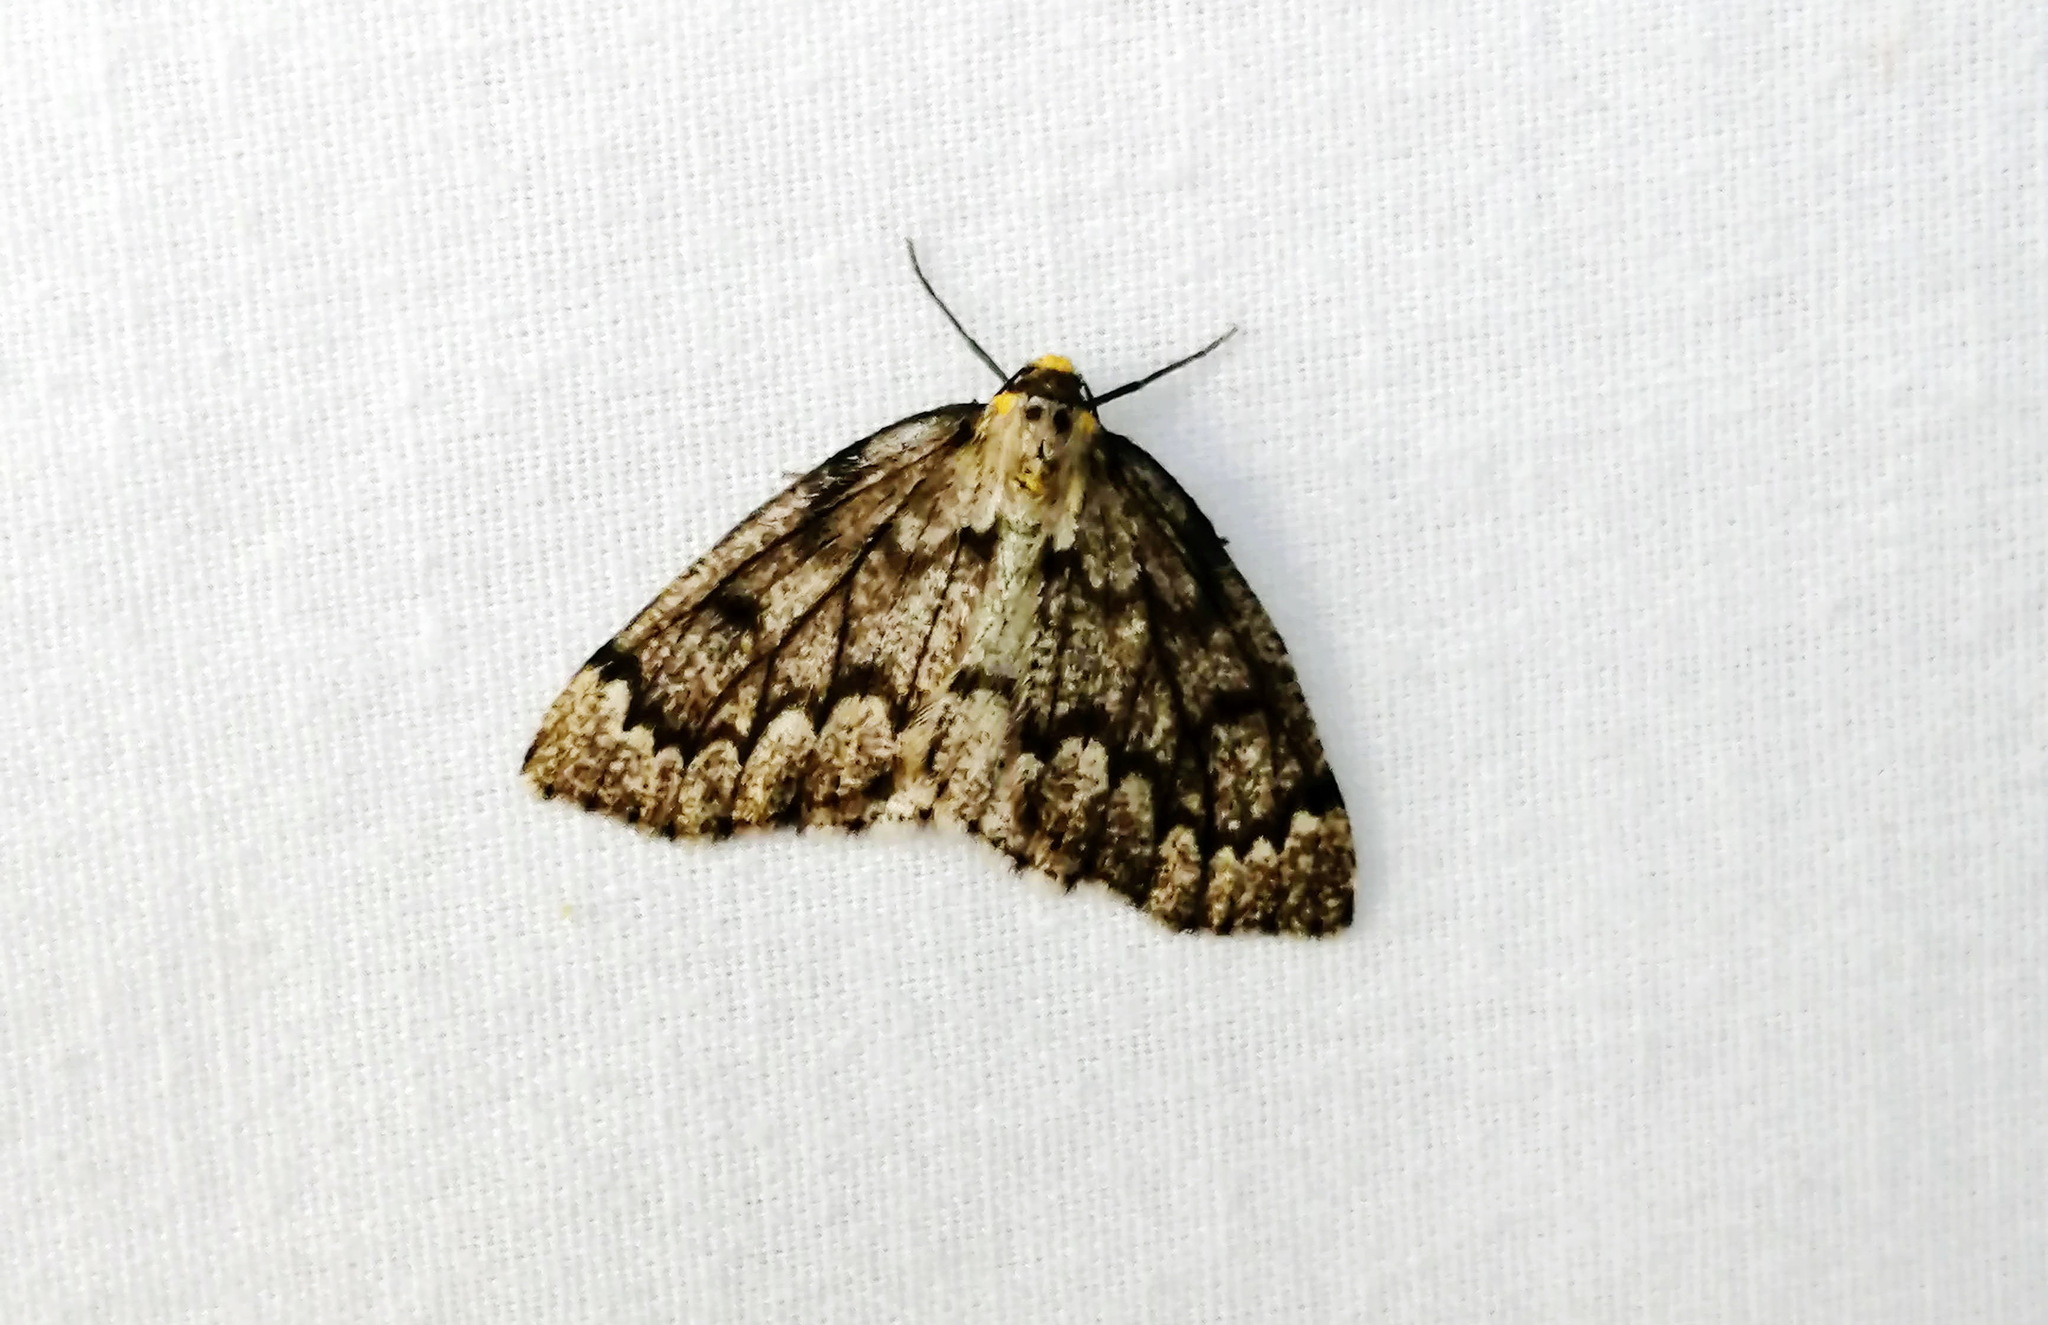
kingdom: Animalia
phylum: Arthropoda
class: Insecta
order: Lepidoptera
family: Geometridae
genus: Nepytia
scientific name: Nepytia canosaria
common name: False hemlock looper
